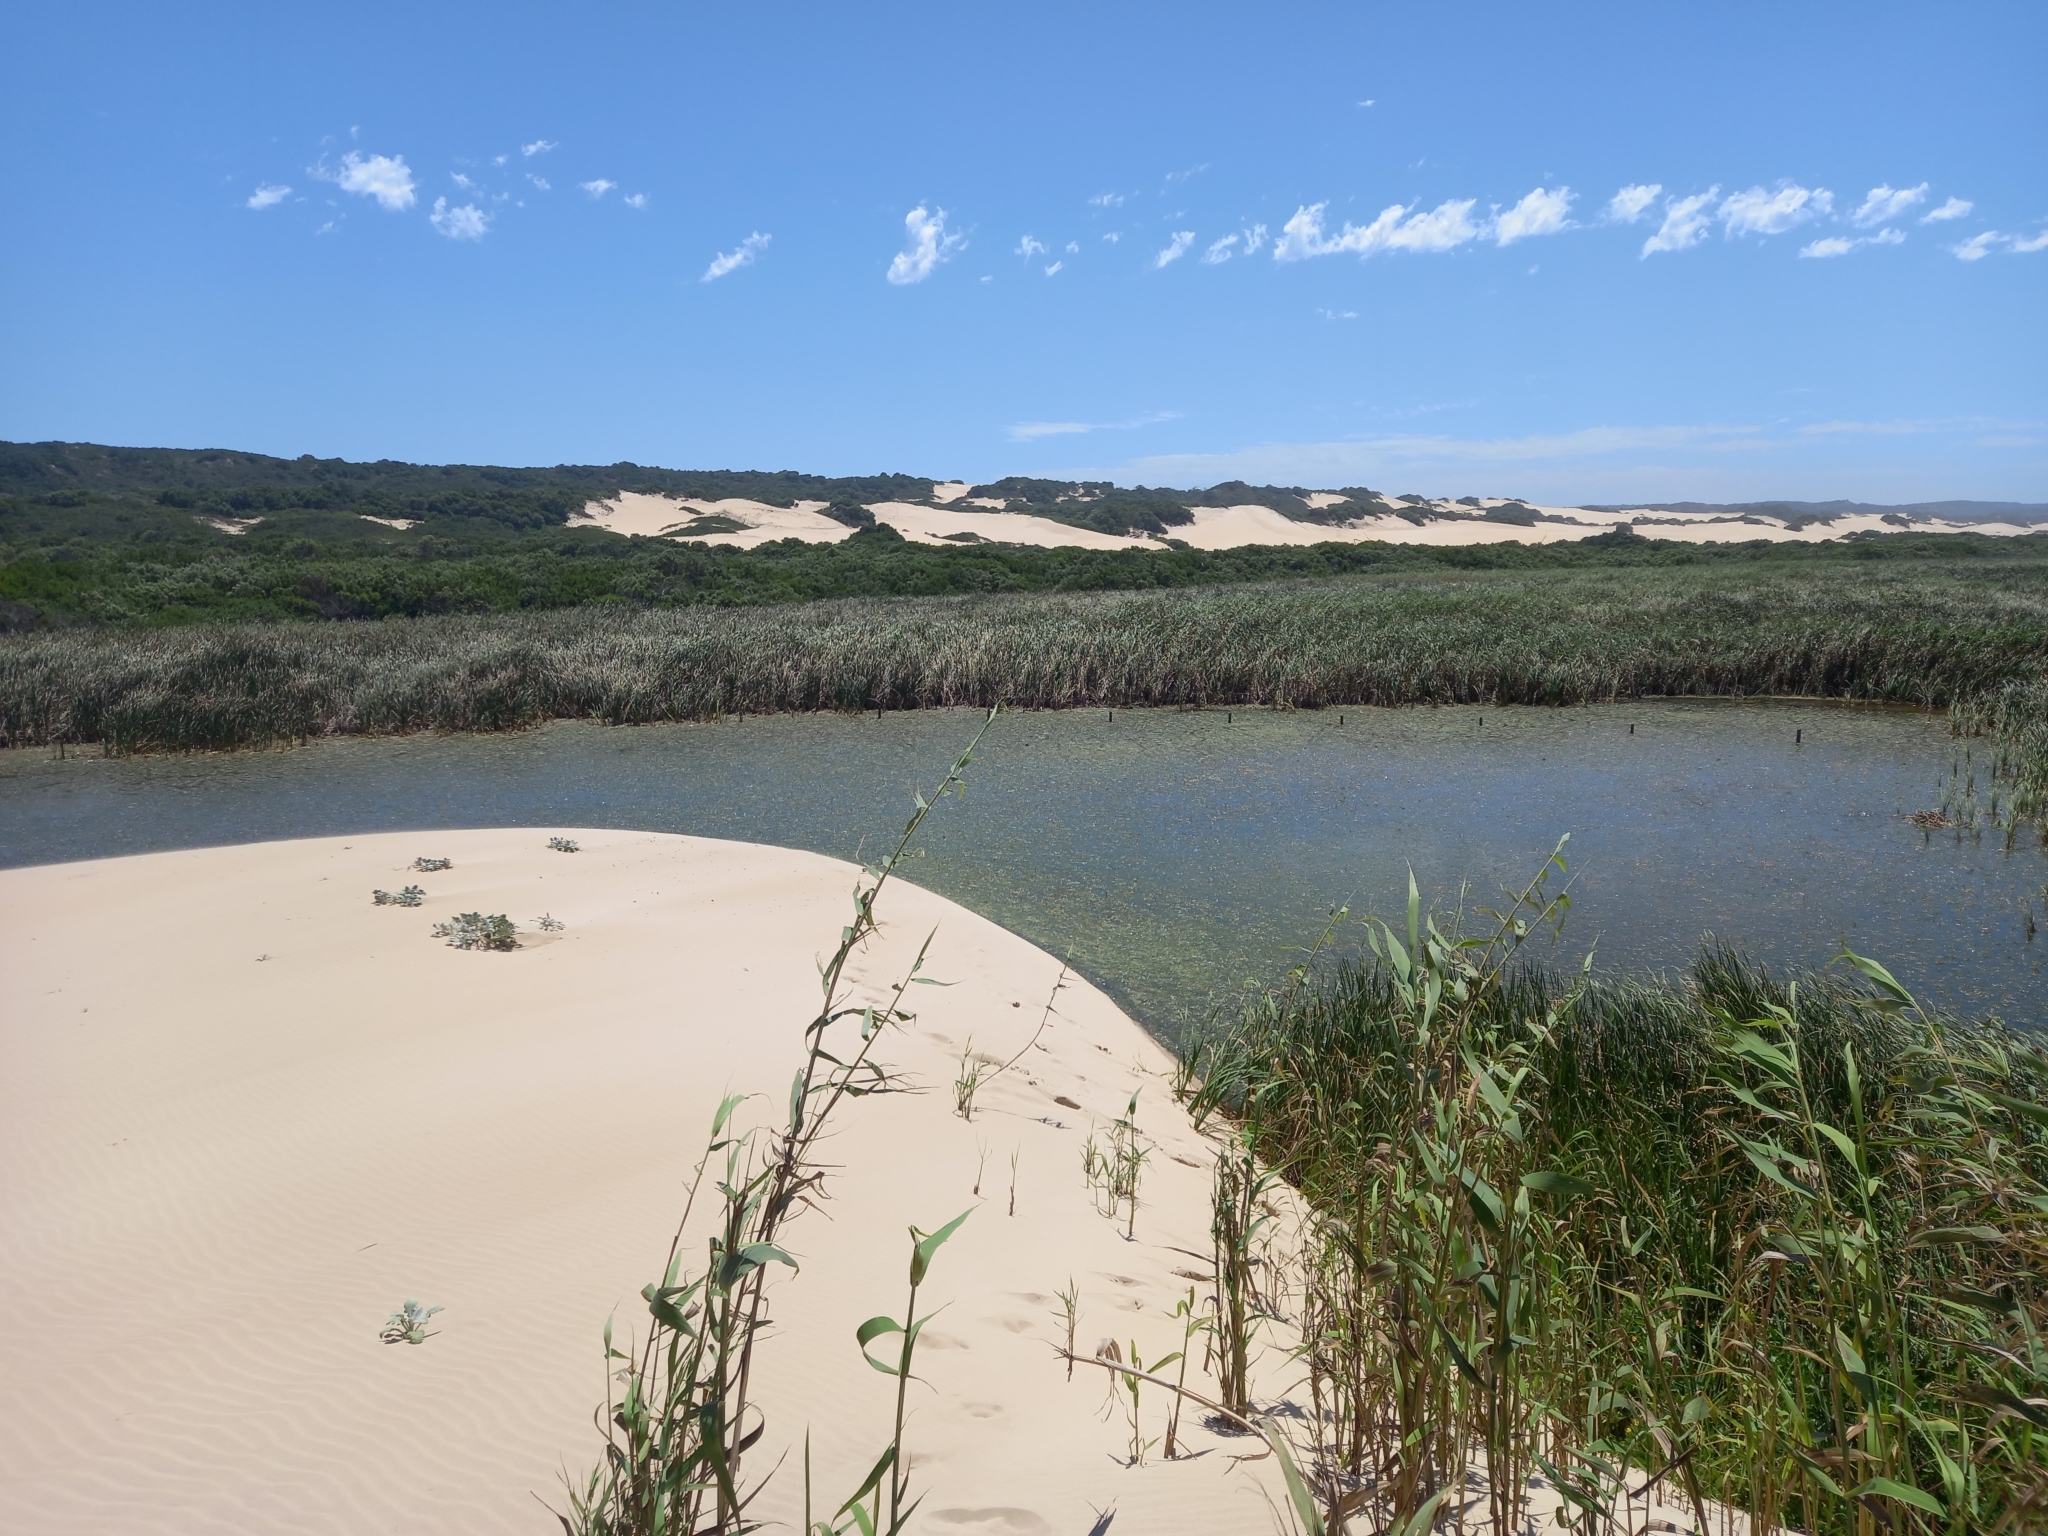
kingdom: Plantae
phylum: Tracheophyta
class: Liliopsida
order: Poales
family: Poaceae
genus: Phragmites
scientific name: Phragmites australis
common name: Common reed
